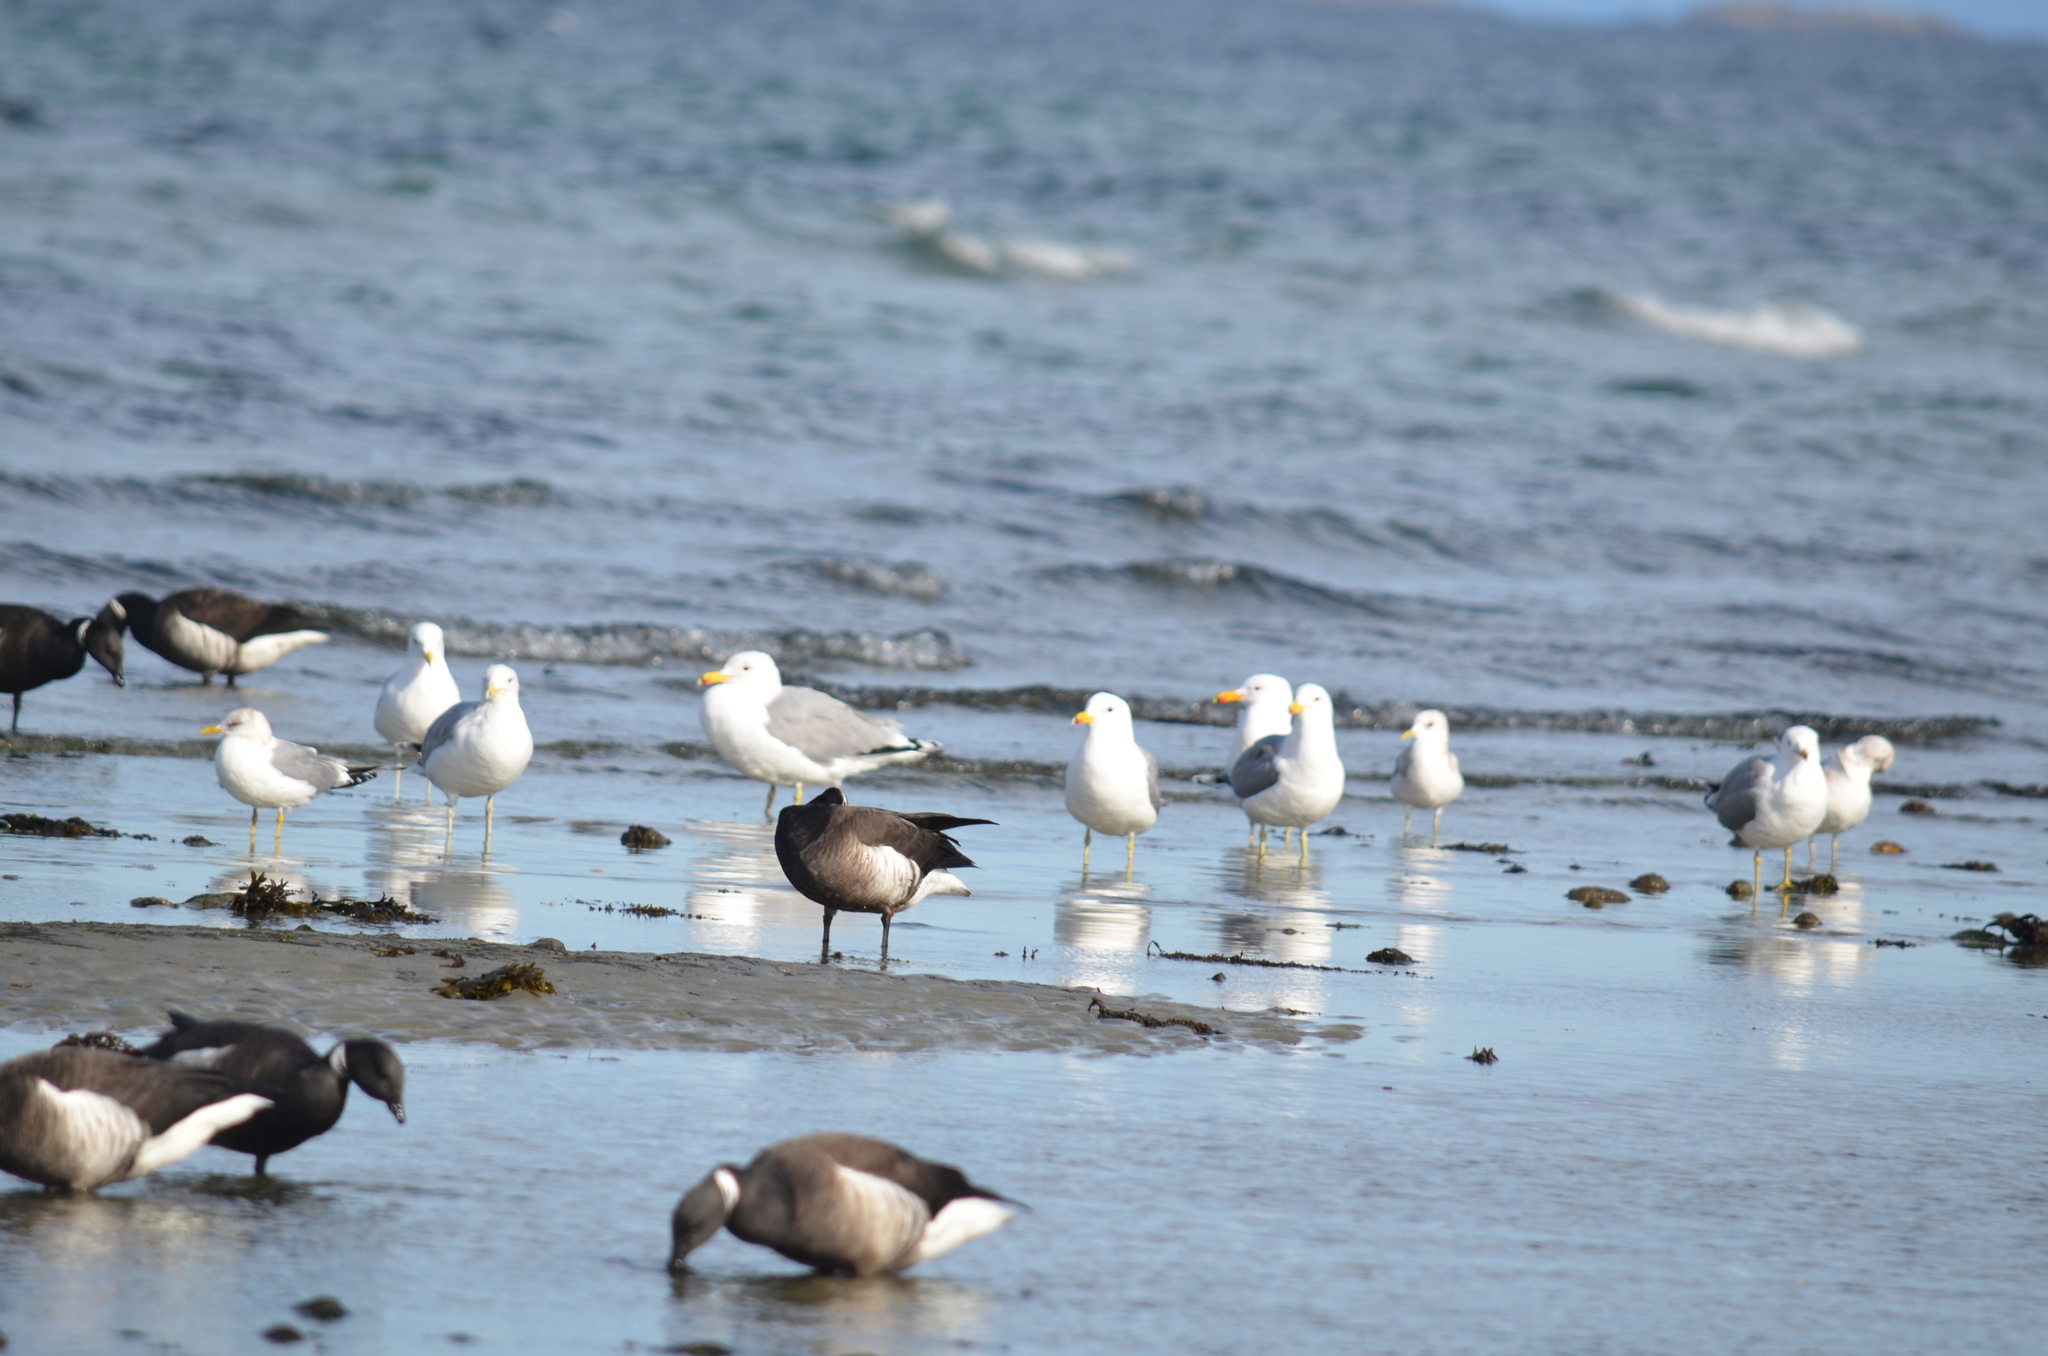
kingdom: Animalia
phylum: Chordata
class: Aves
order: Charadriiformes
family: Laridae
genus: Larus
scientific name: Larus californicus
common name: California gull
